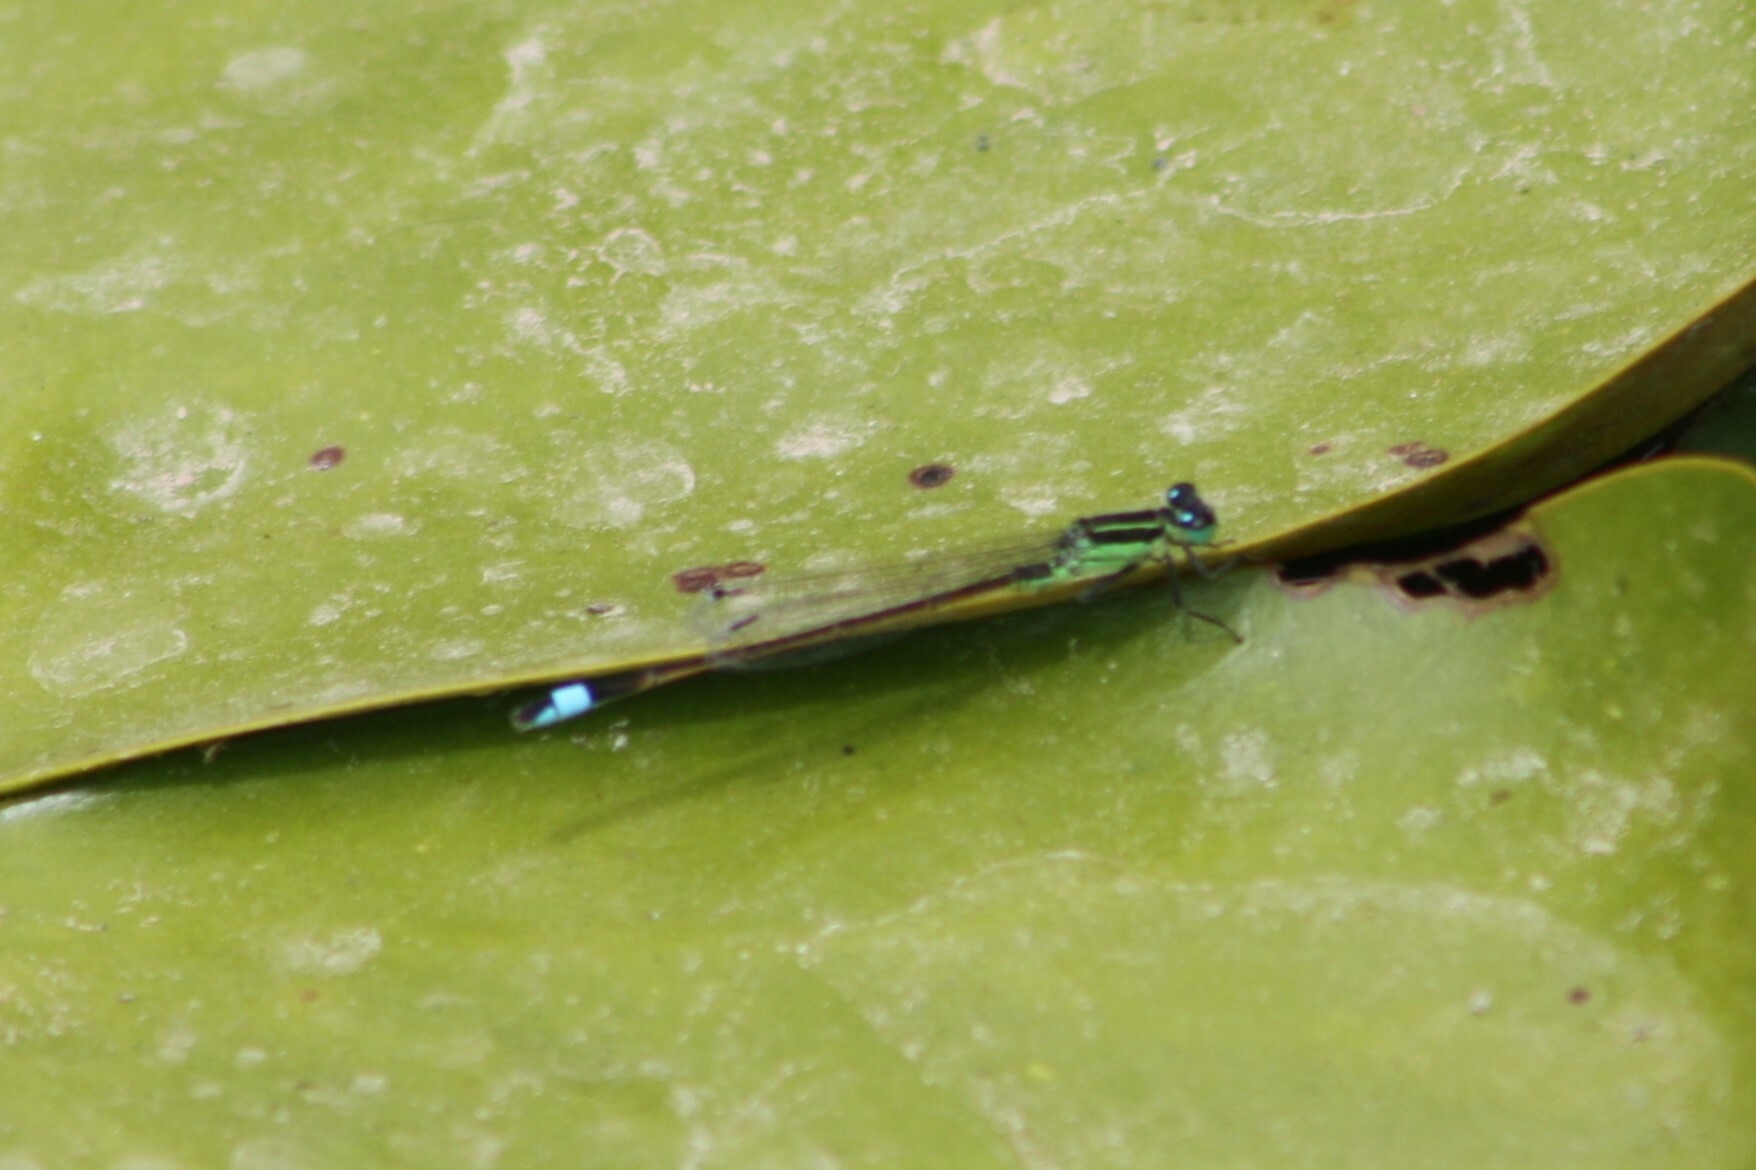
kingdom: Animalia
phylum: Arthropoda
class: Insecta
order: Odonata
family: Coenagrionidae
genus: Ischnura
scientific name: Ischnura ramburii
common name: Rambur's forktail
